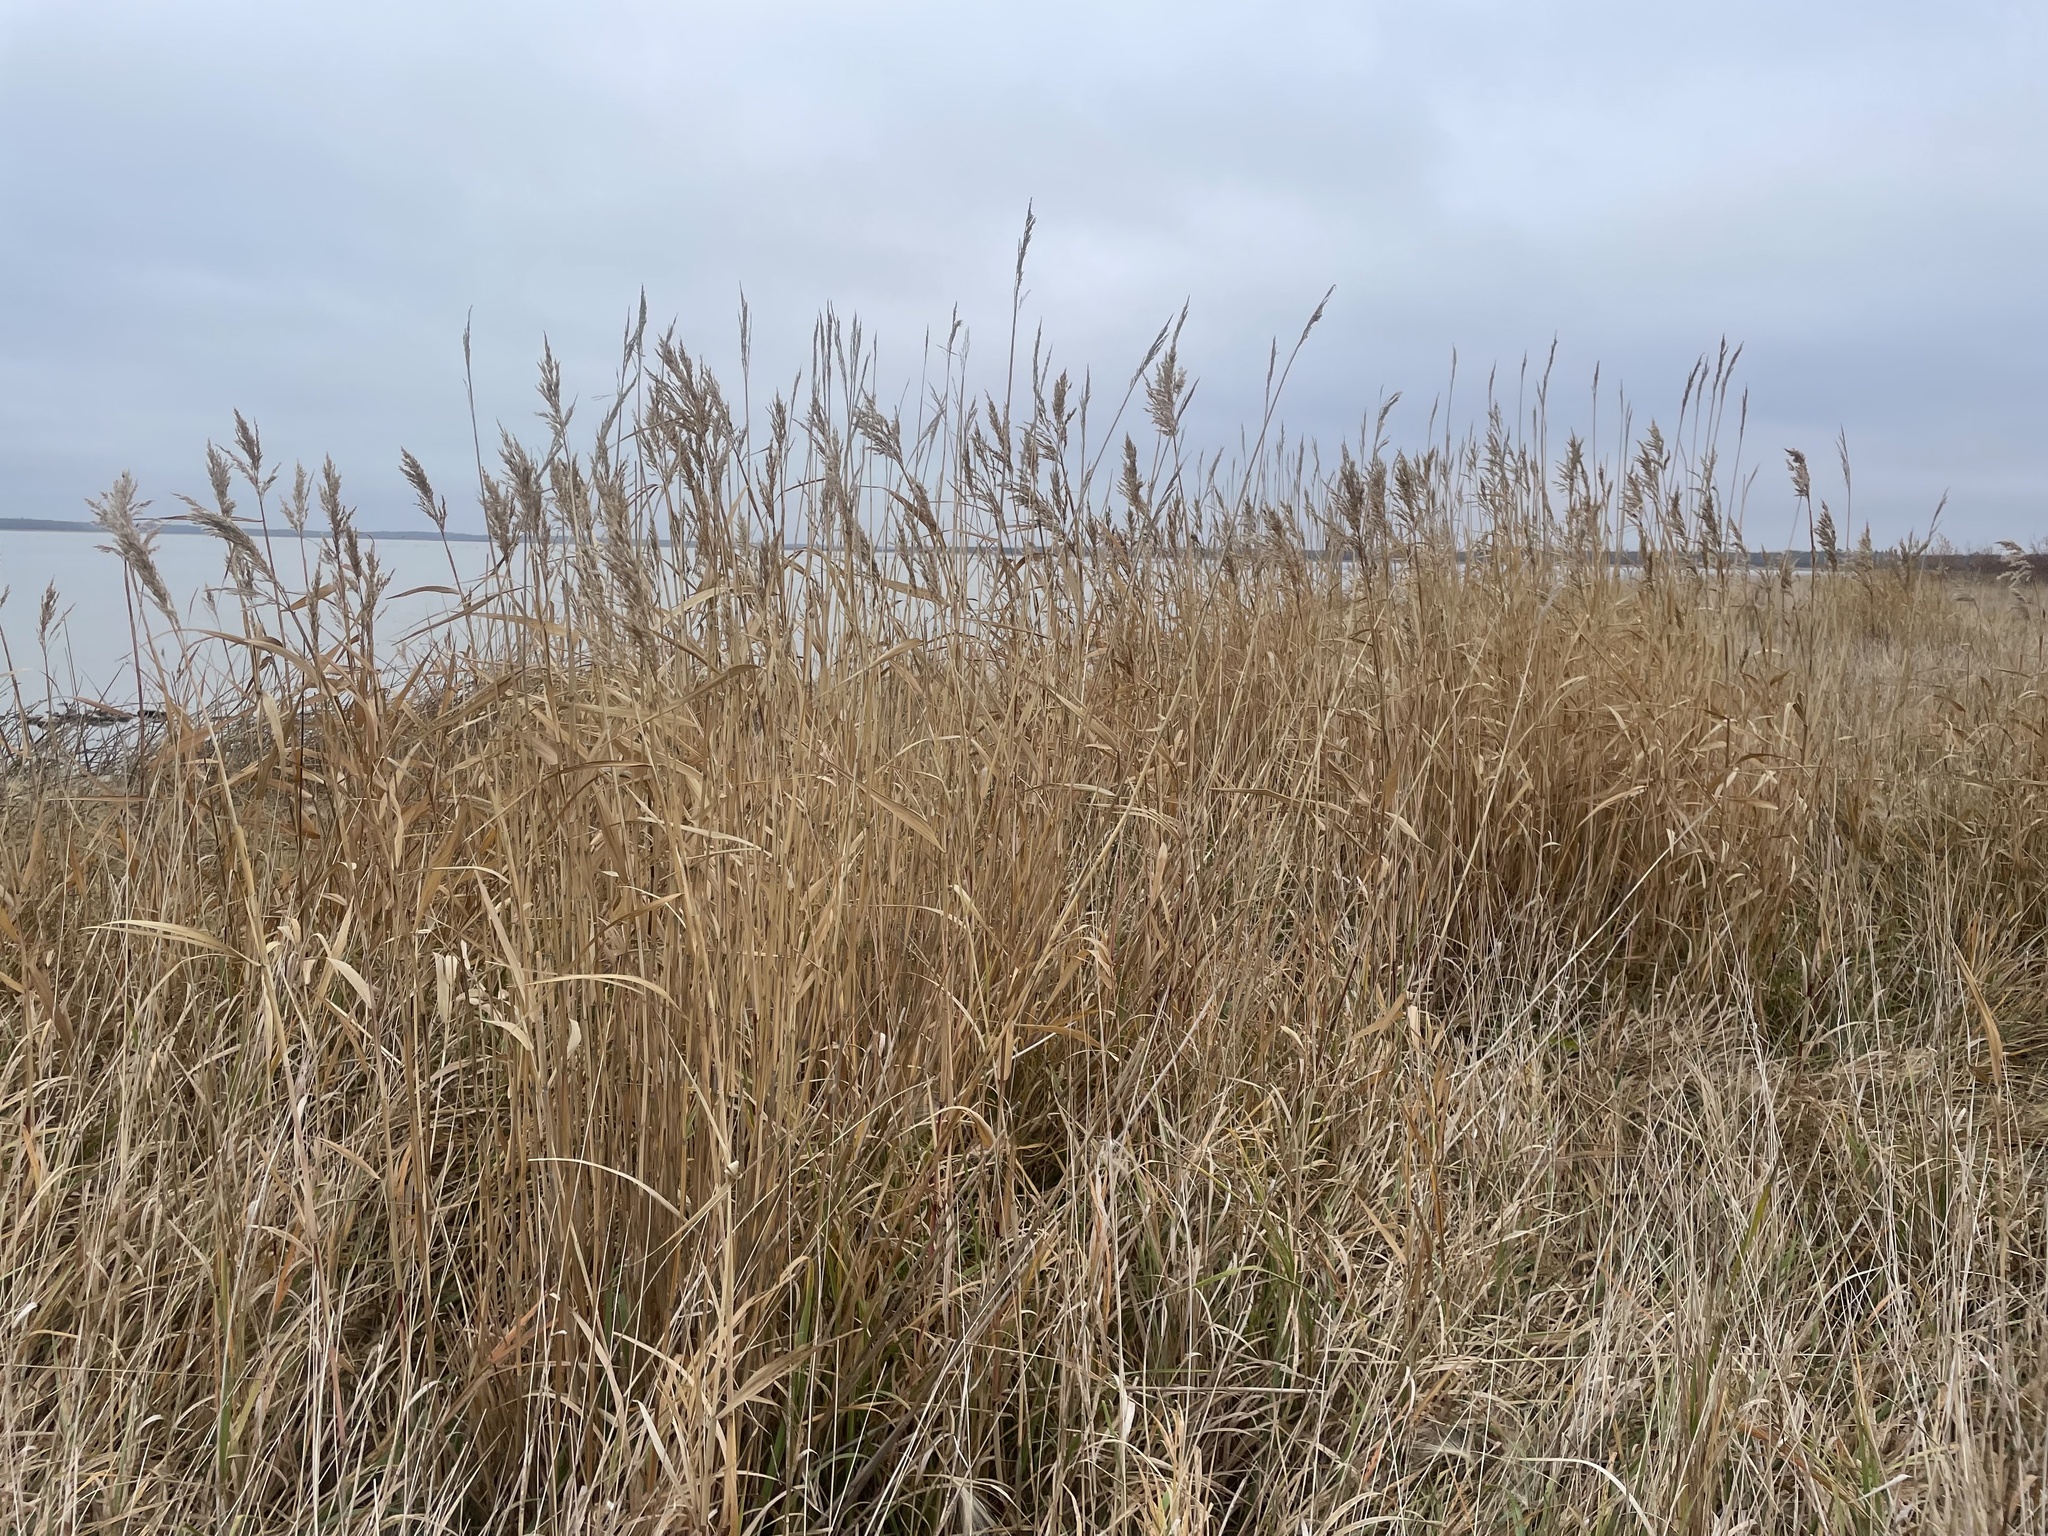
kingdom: Plantae
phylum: Tracheophyta
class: Liliopsida
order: Poales
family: Poaceae
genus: Phragmites
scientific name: Phragmites australis
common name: Common reed
